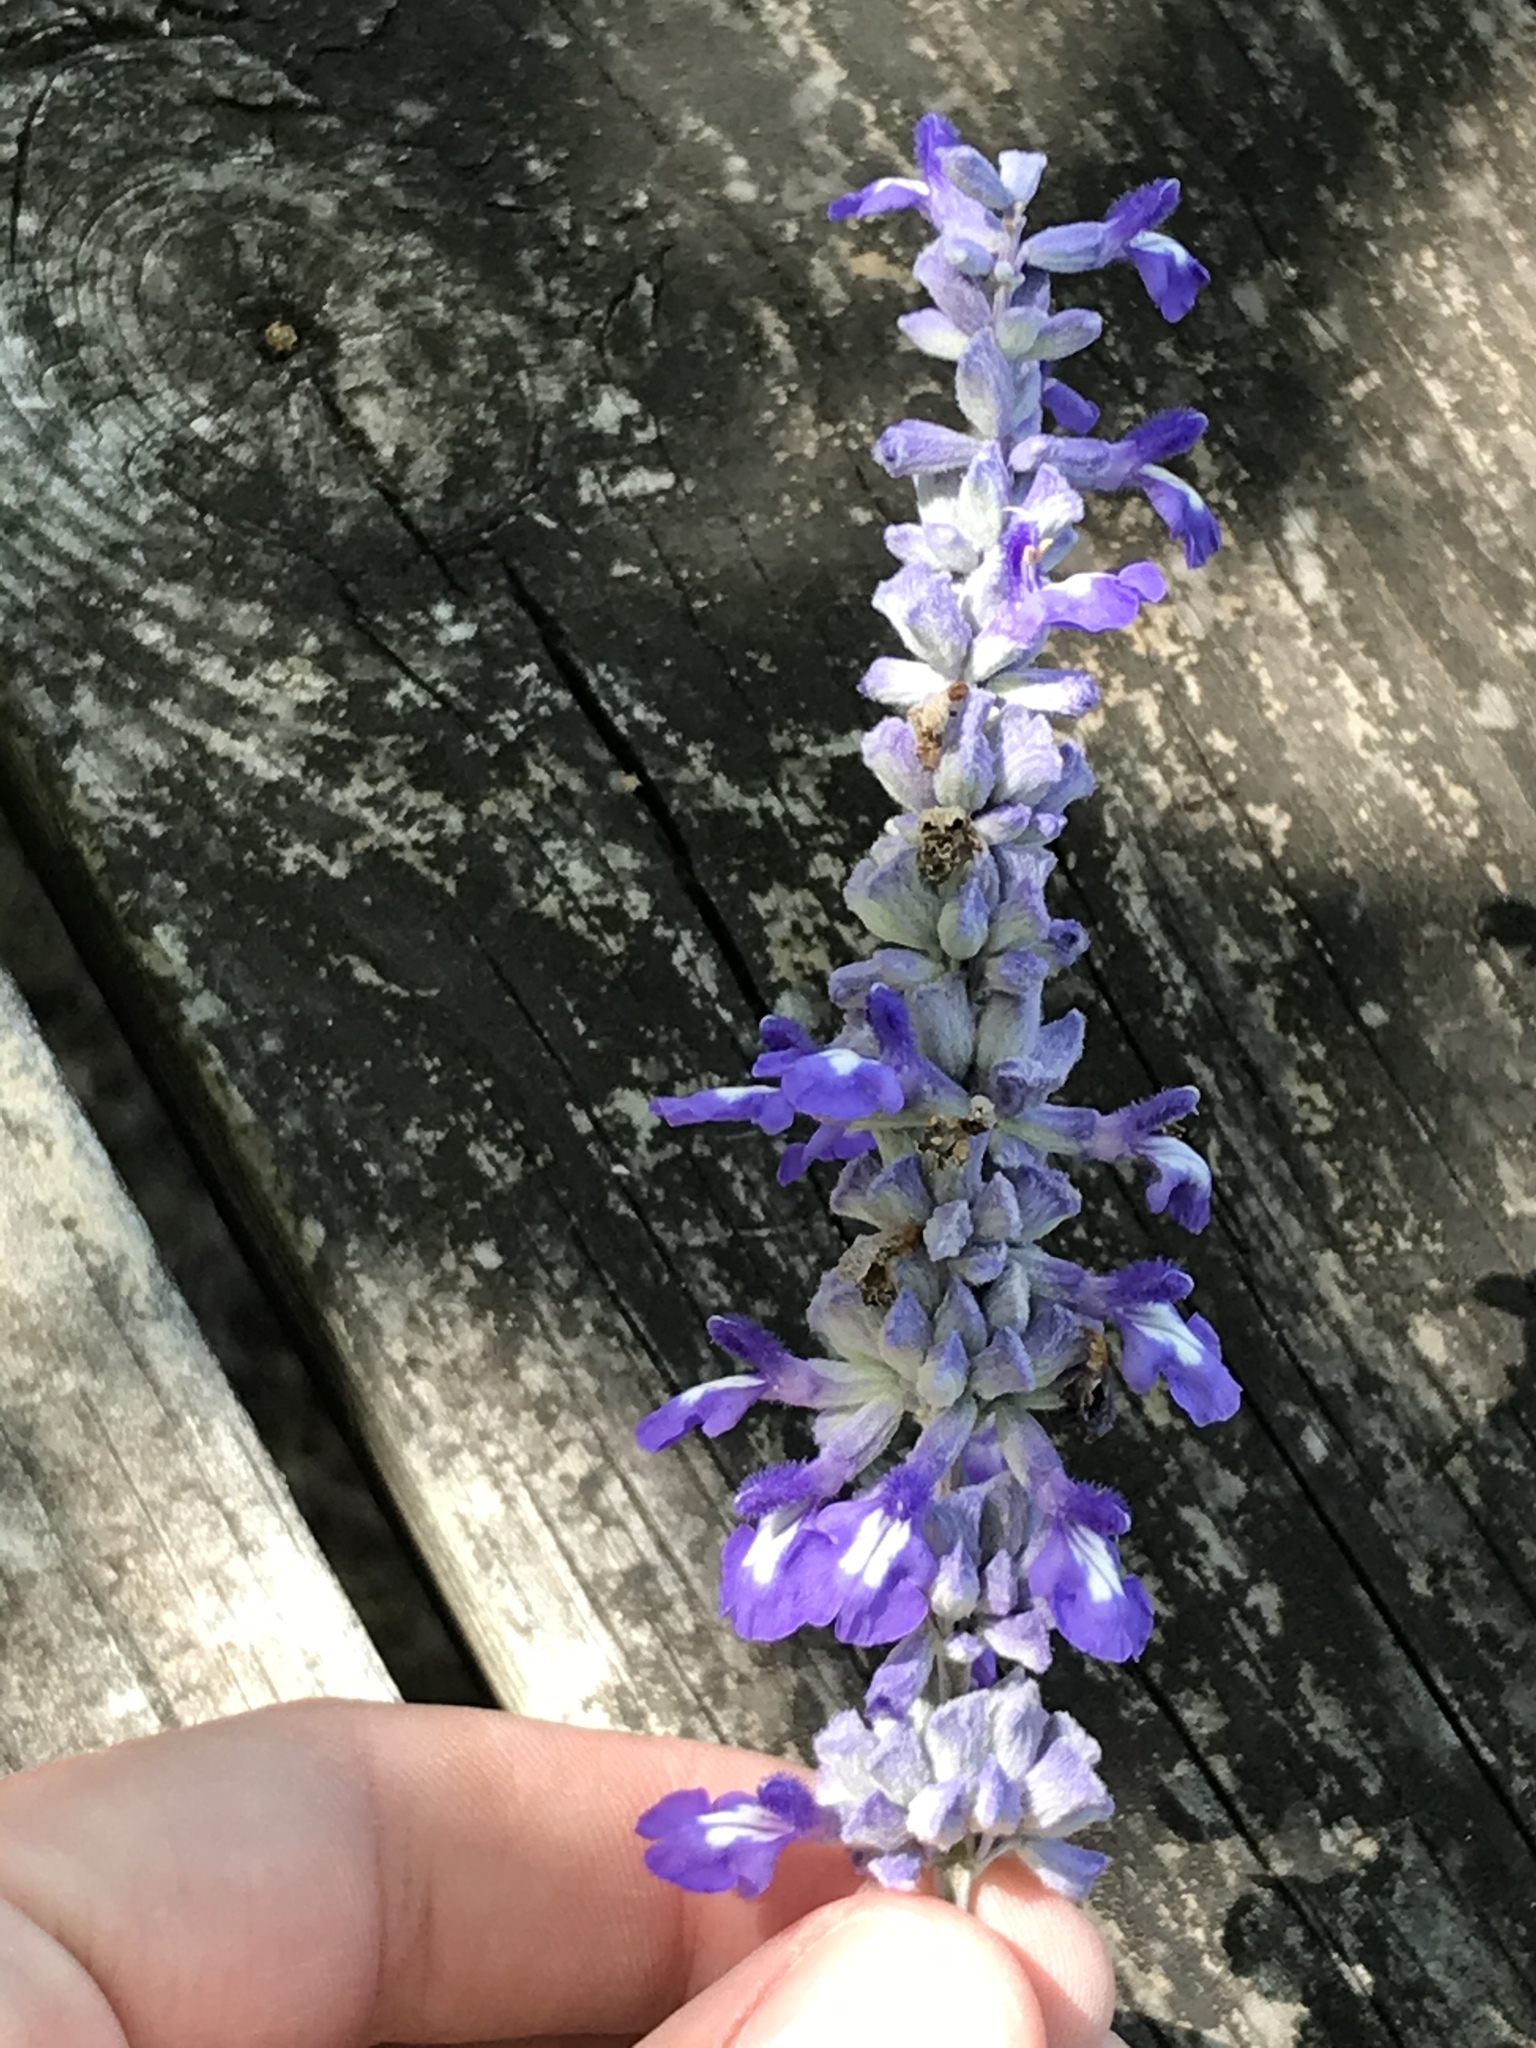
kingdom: Plantae
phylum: Tracheophyta
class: Magnoliopsida
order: Lamiales
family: Lamiaceae
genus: Salvia
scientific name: Salvia farinacea
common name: Mealy sage
